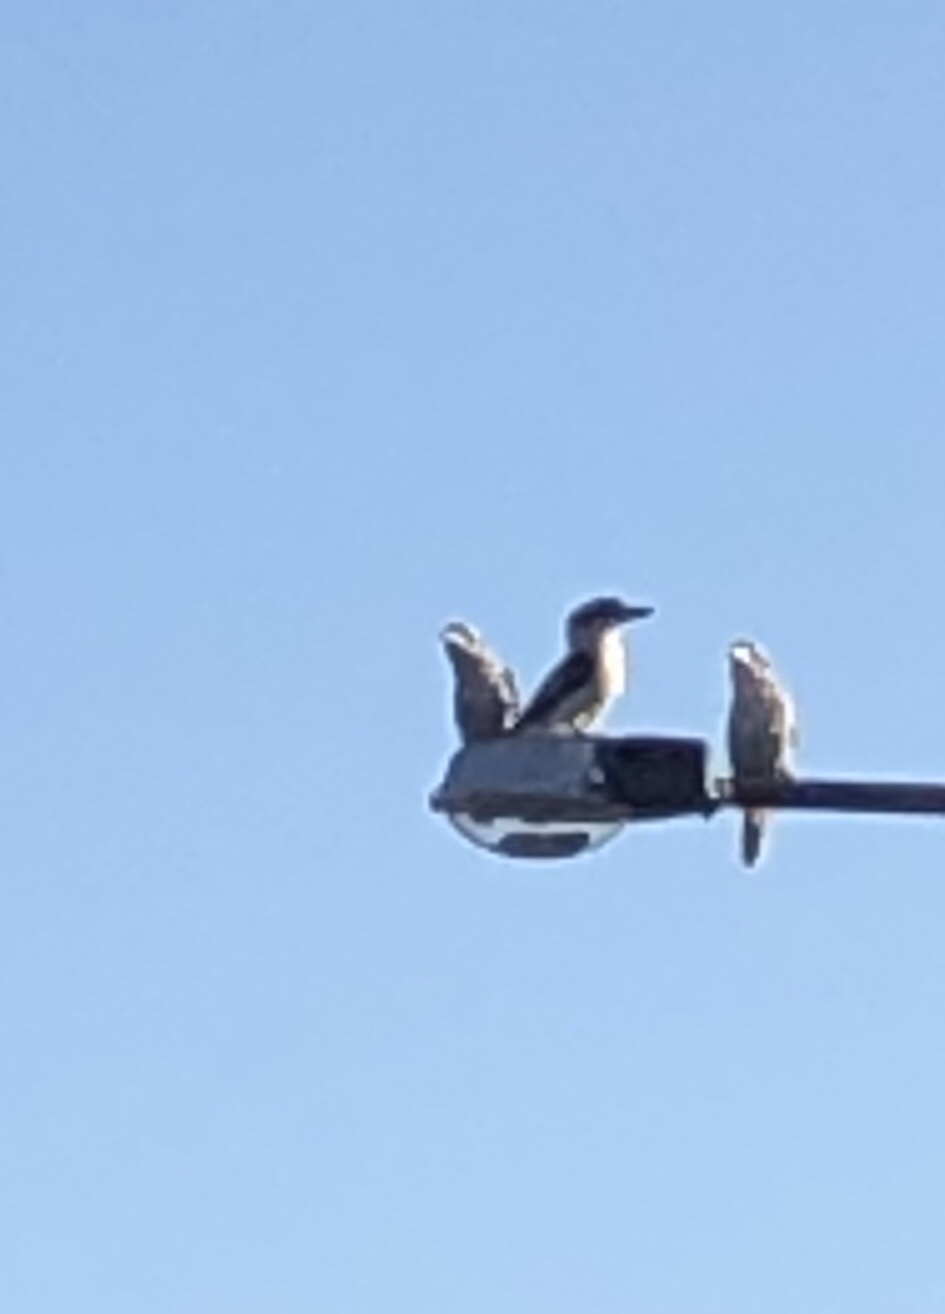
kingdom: Animalia
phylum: Chordata
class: Aves
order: Coraciiformes
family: Alcedinidae
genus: Dacelo
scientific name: Dacelo novaeguineae
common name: Laughing kookaburra
